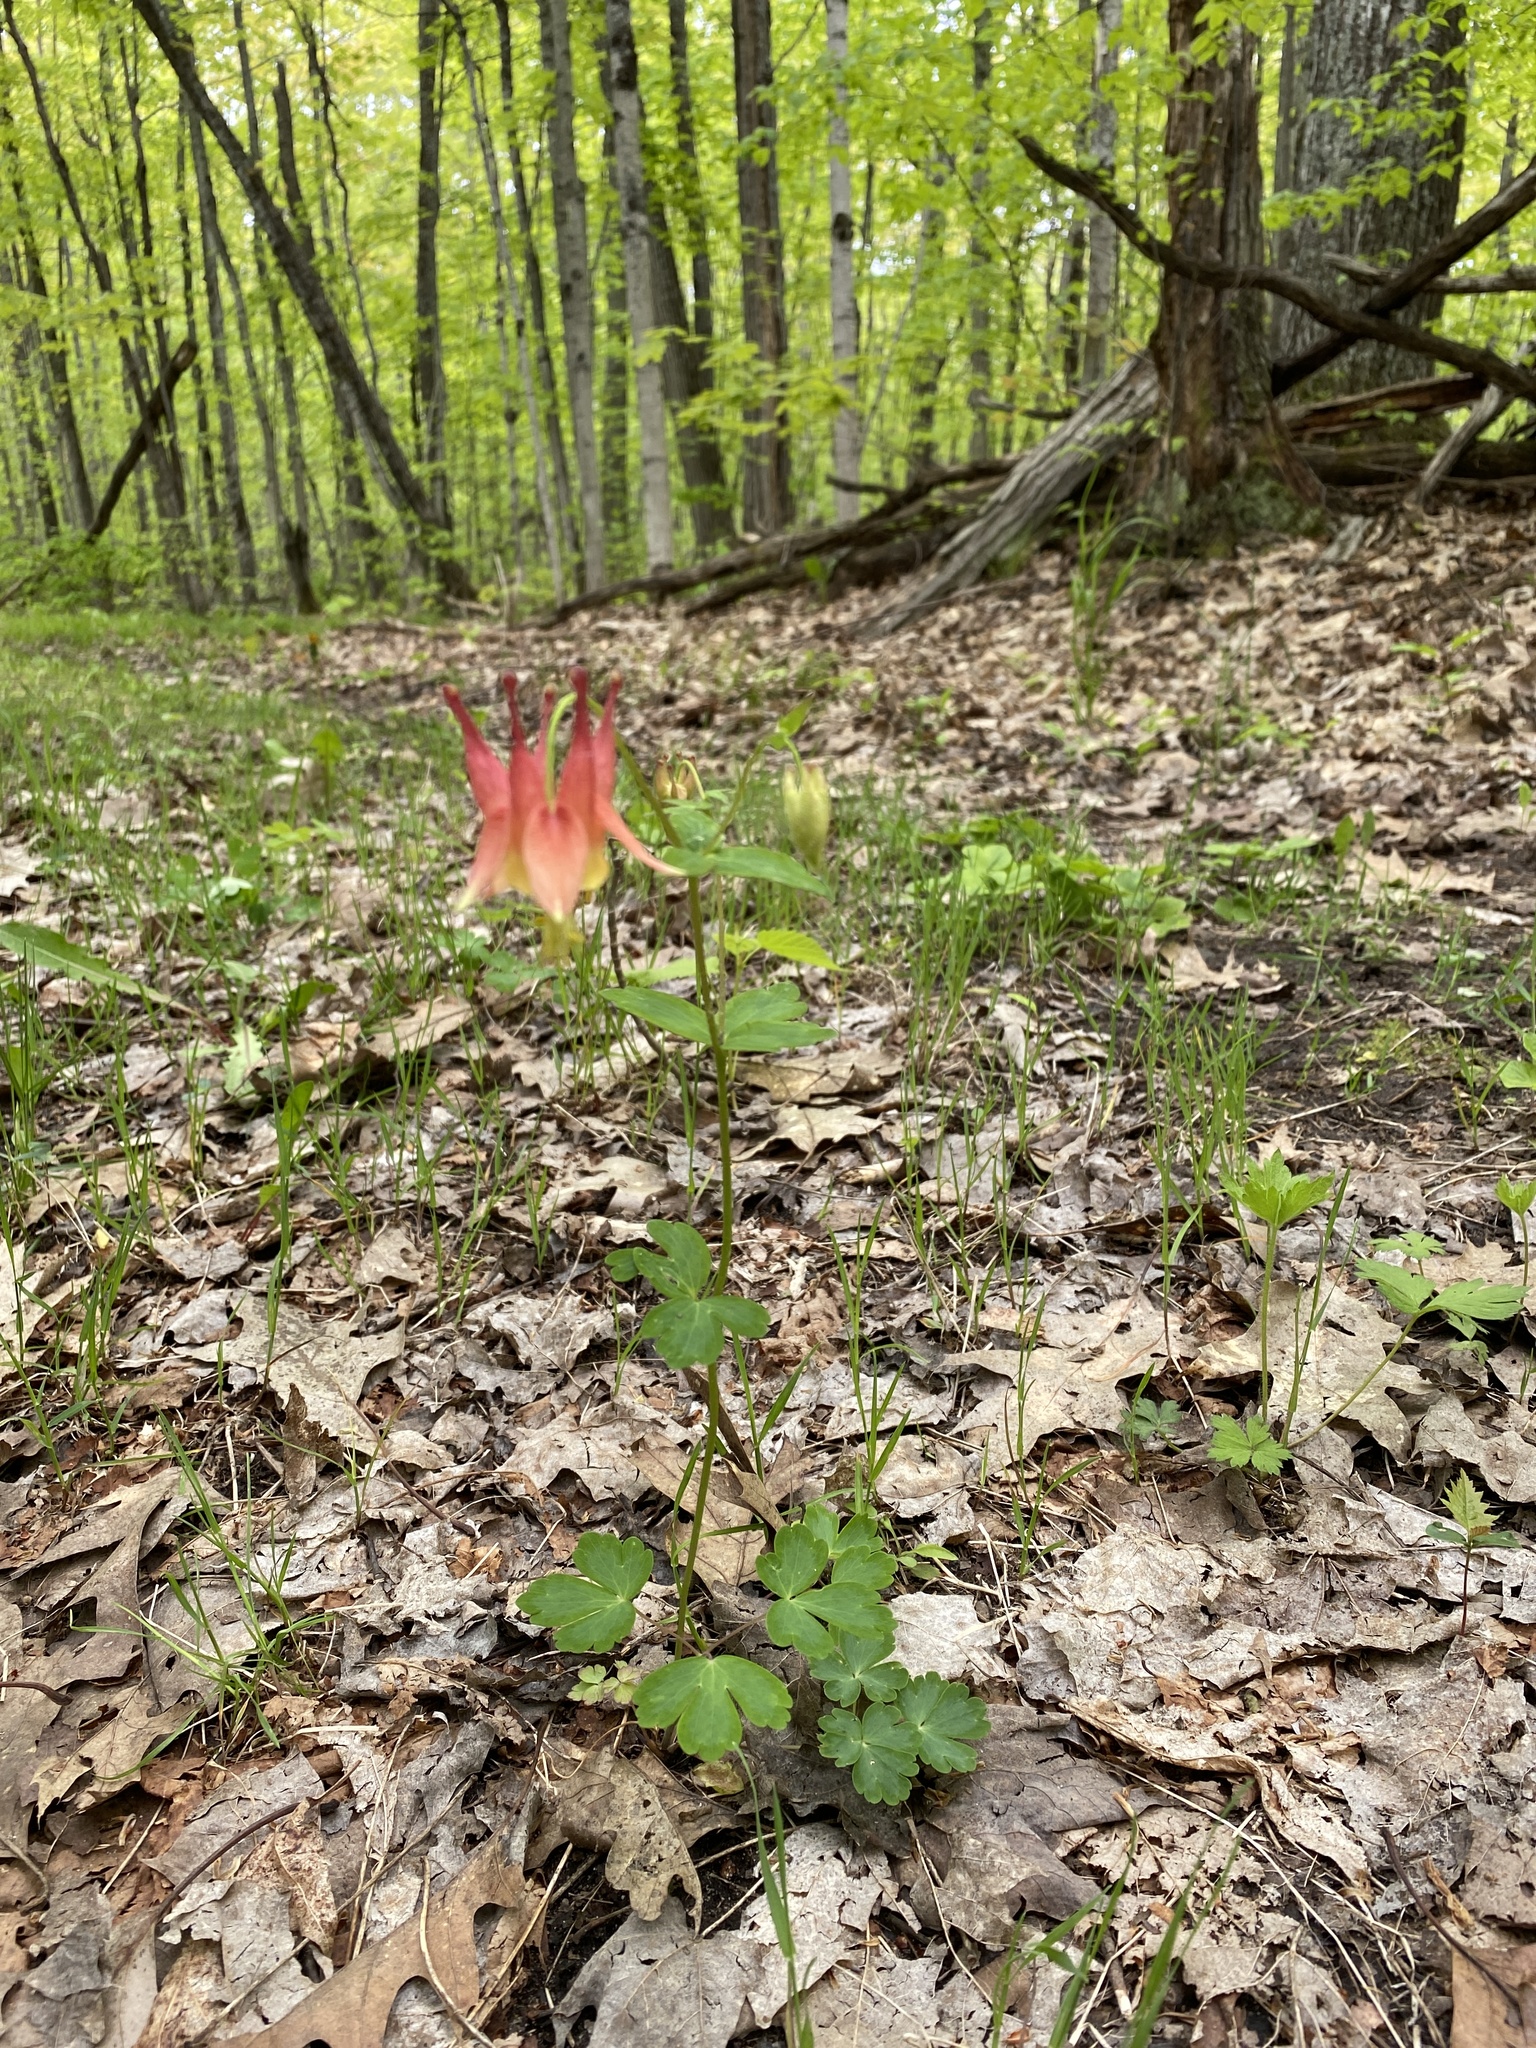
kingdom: Plantae
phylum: Tracheophyta
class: Magnoliopsida
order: Ranunculales
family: Ranunculaceae
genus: Aquilegia
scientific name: Aquilegia canadensis
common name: American columbine
